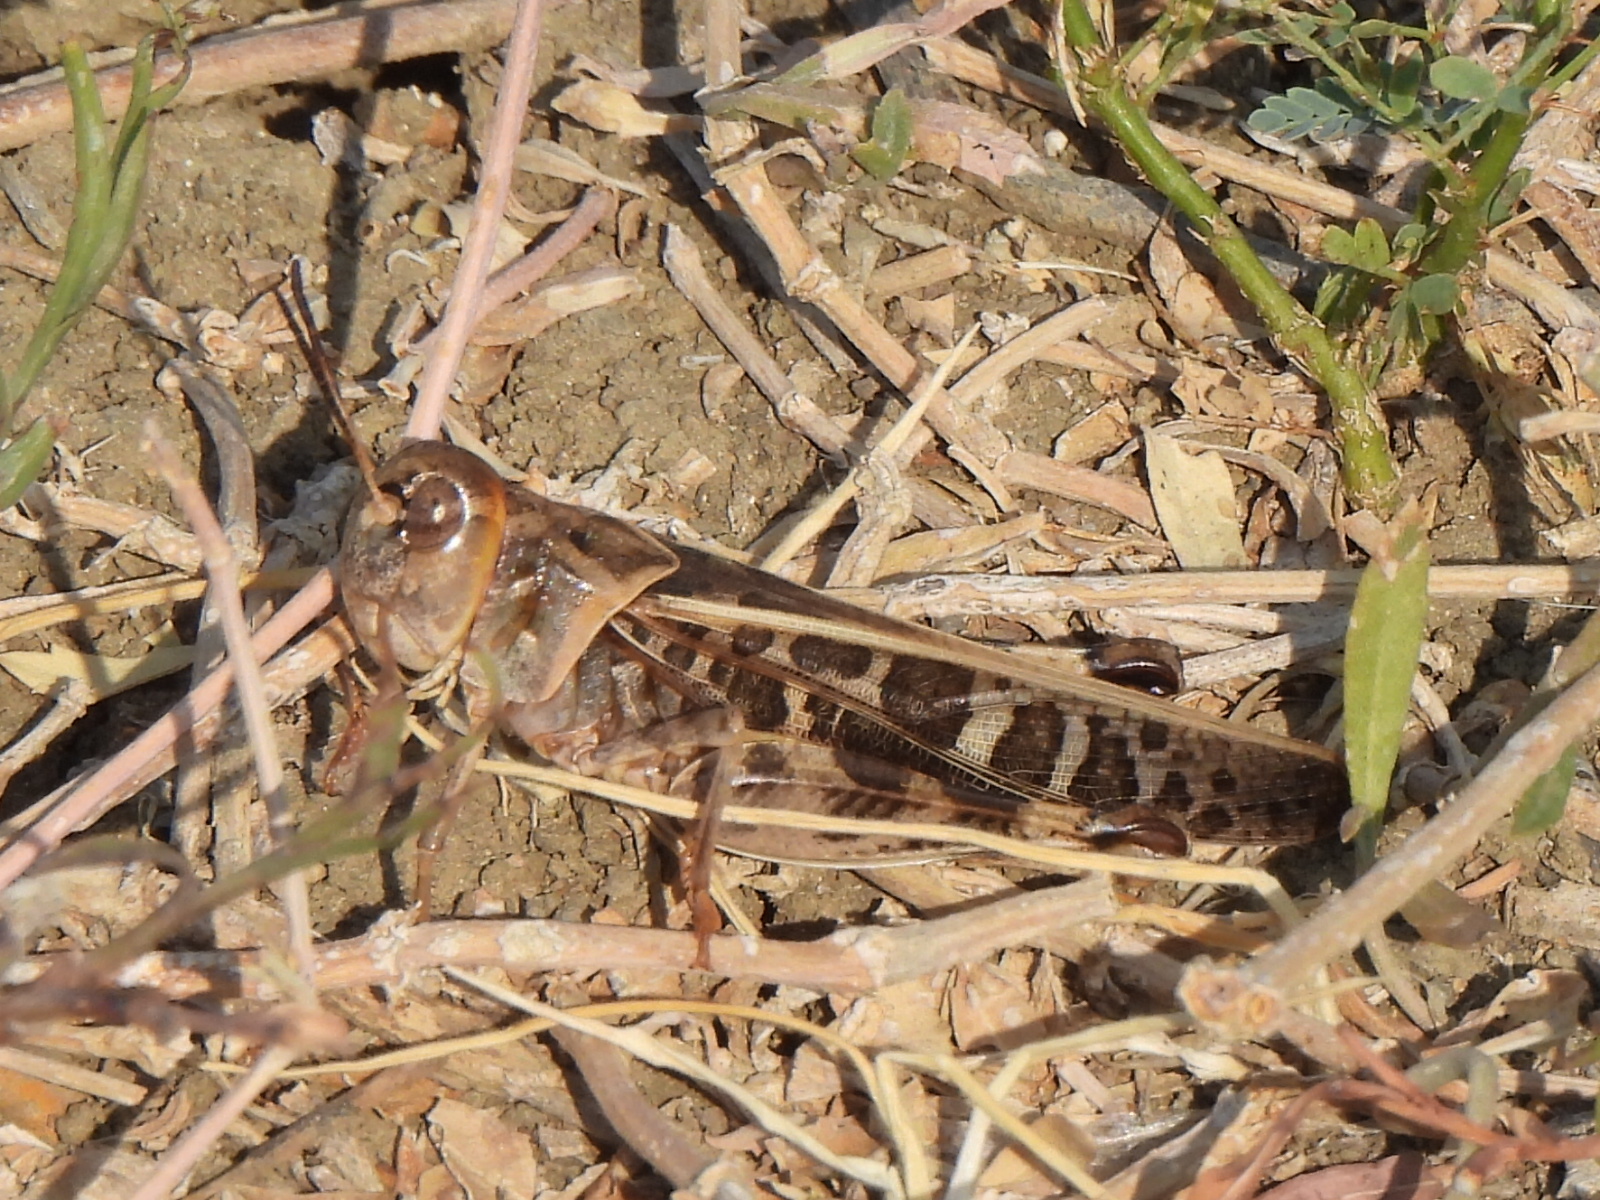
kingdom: Animalia
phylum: Arthropoda
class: Insecta
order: Orthoptera
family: Acrididae
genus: Hippiscus
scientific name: Hippiscus ocelote
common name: Wrinkled grasshopper
